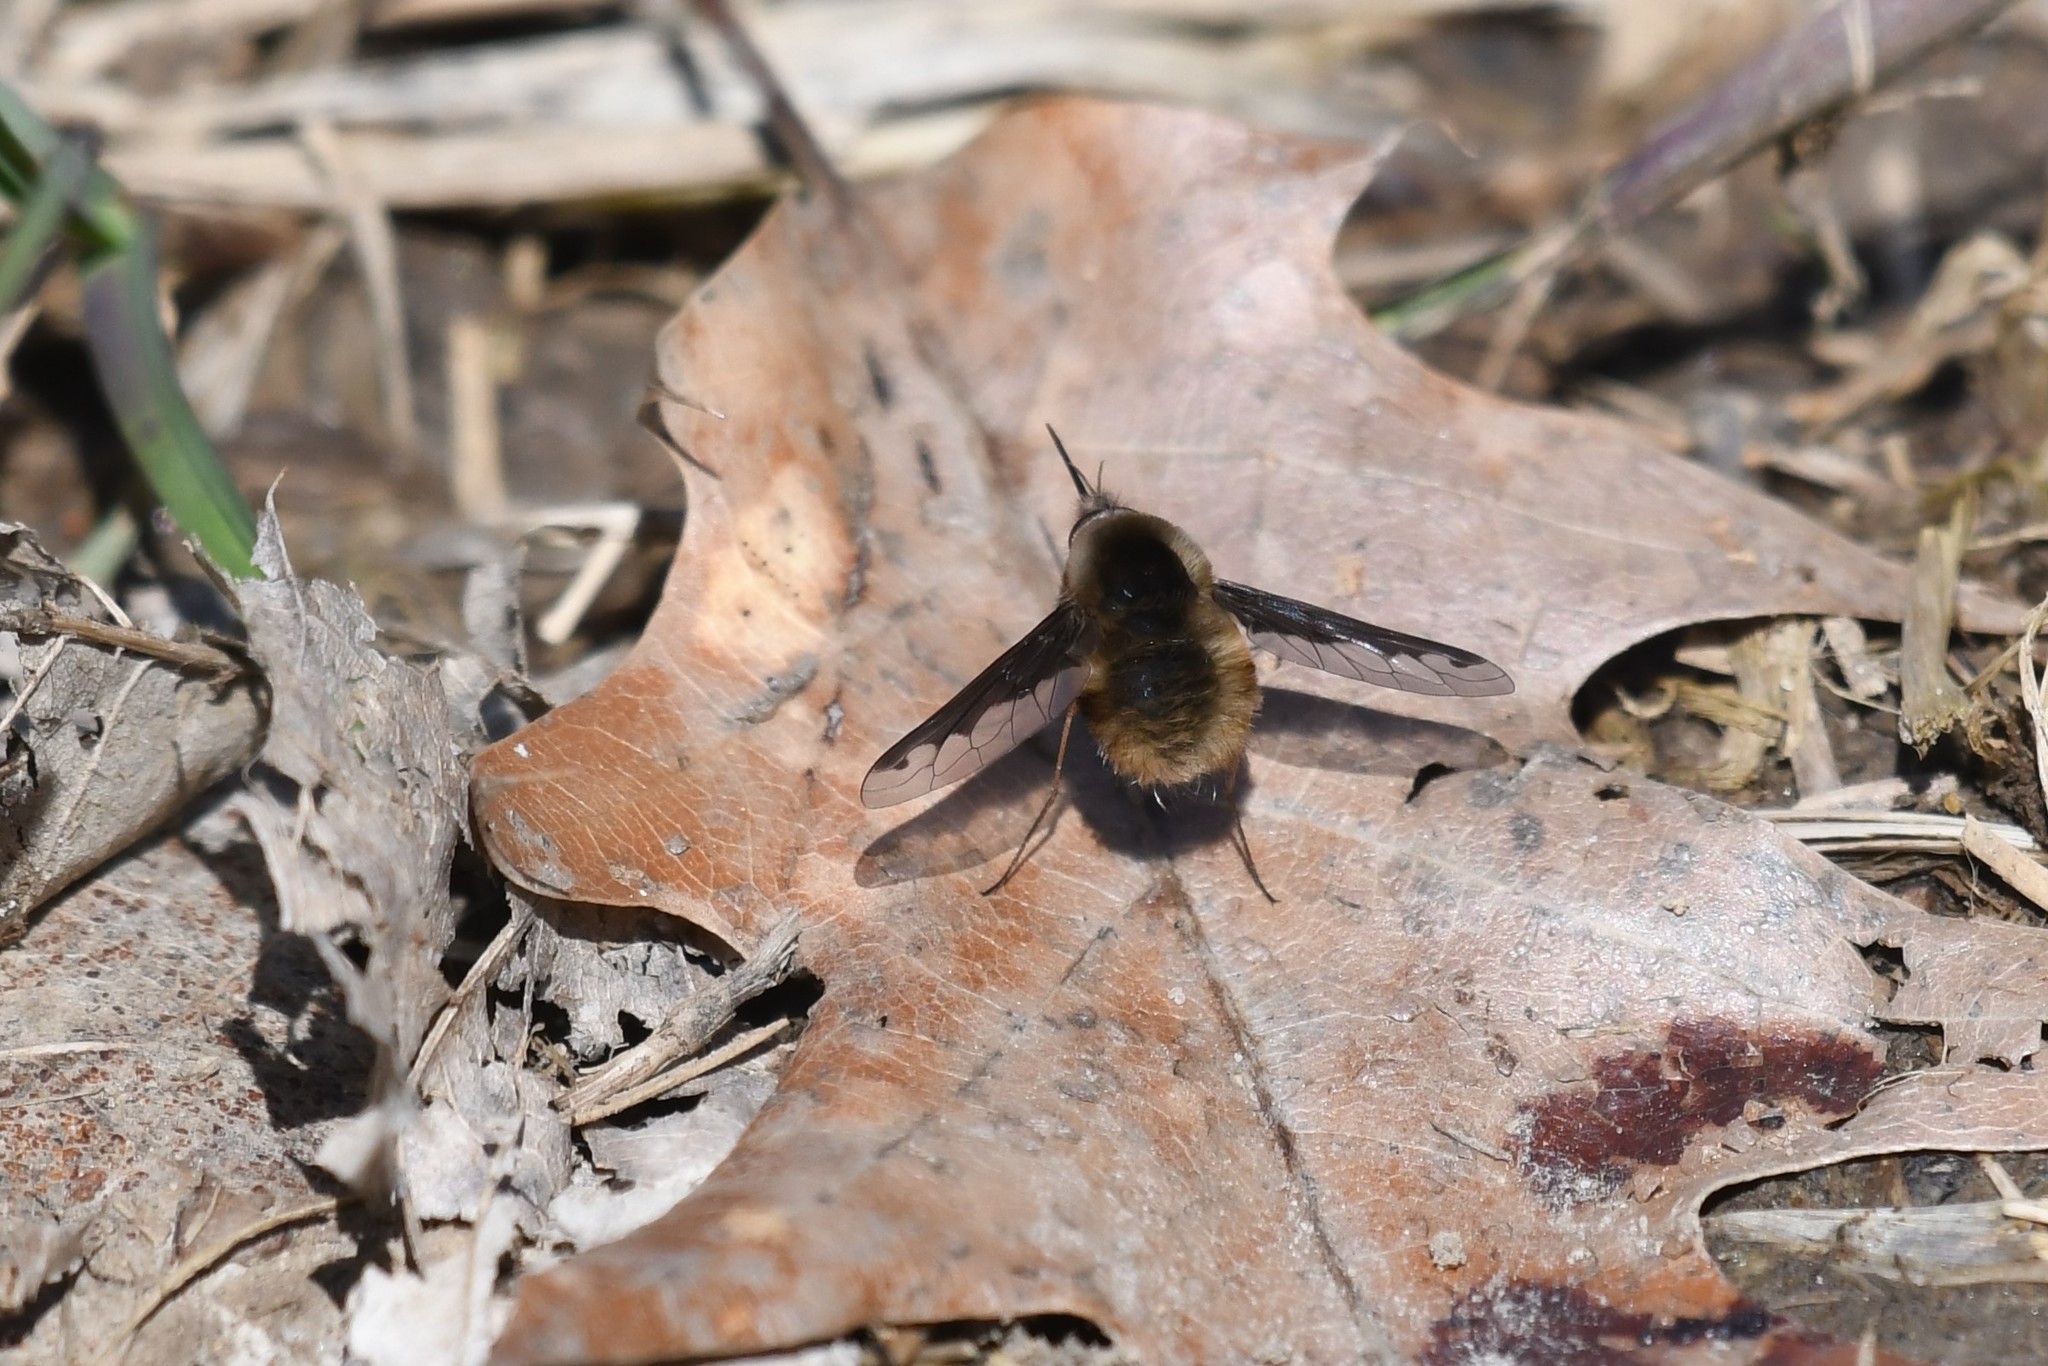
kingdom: Animalia
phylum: Arthropoda
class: Insecta
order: Diptera
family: Bombyliidae
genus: Bombylius
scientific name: Bombylius major
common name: Bee fly
